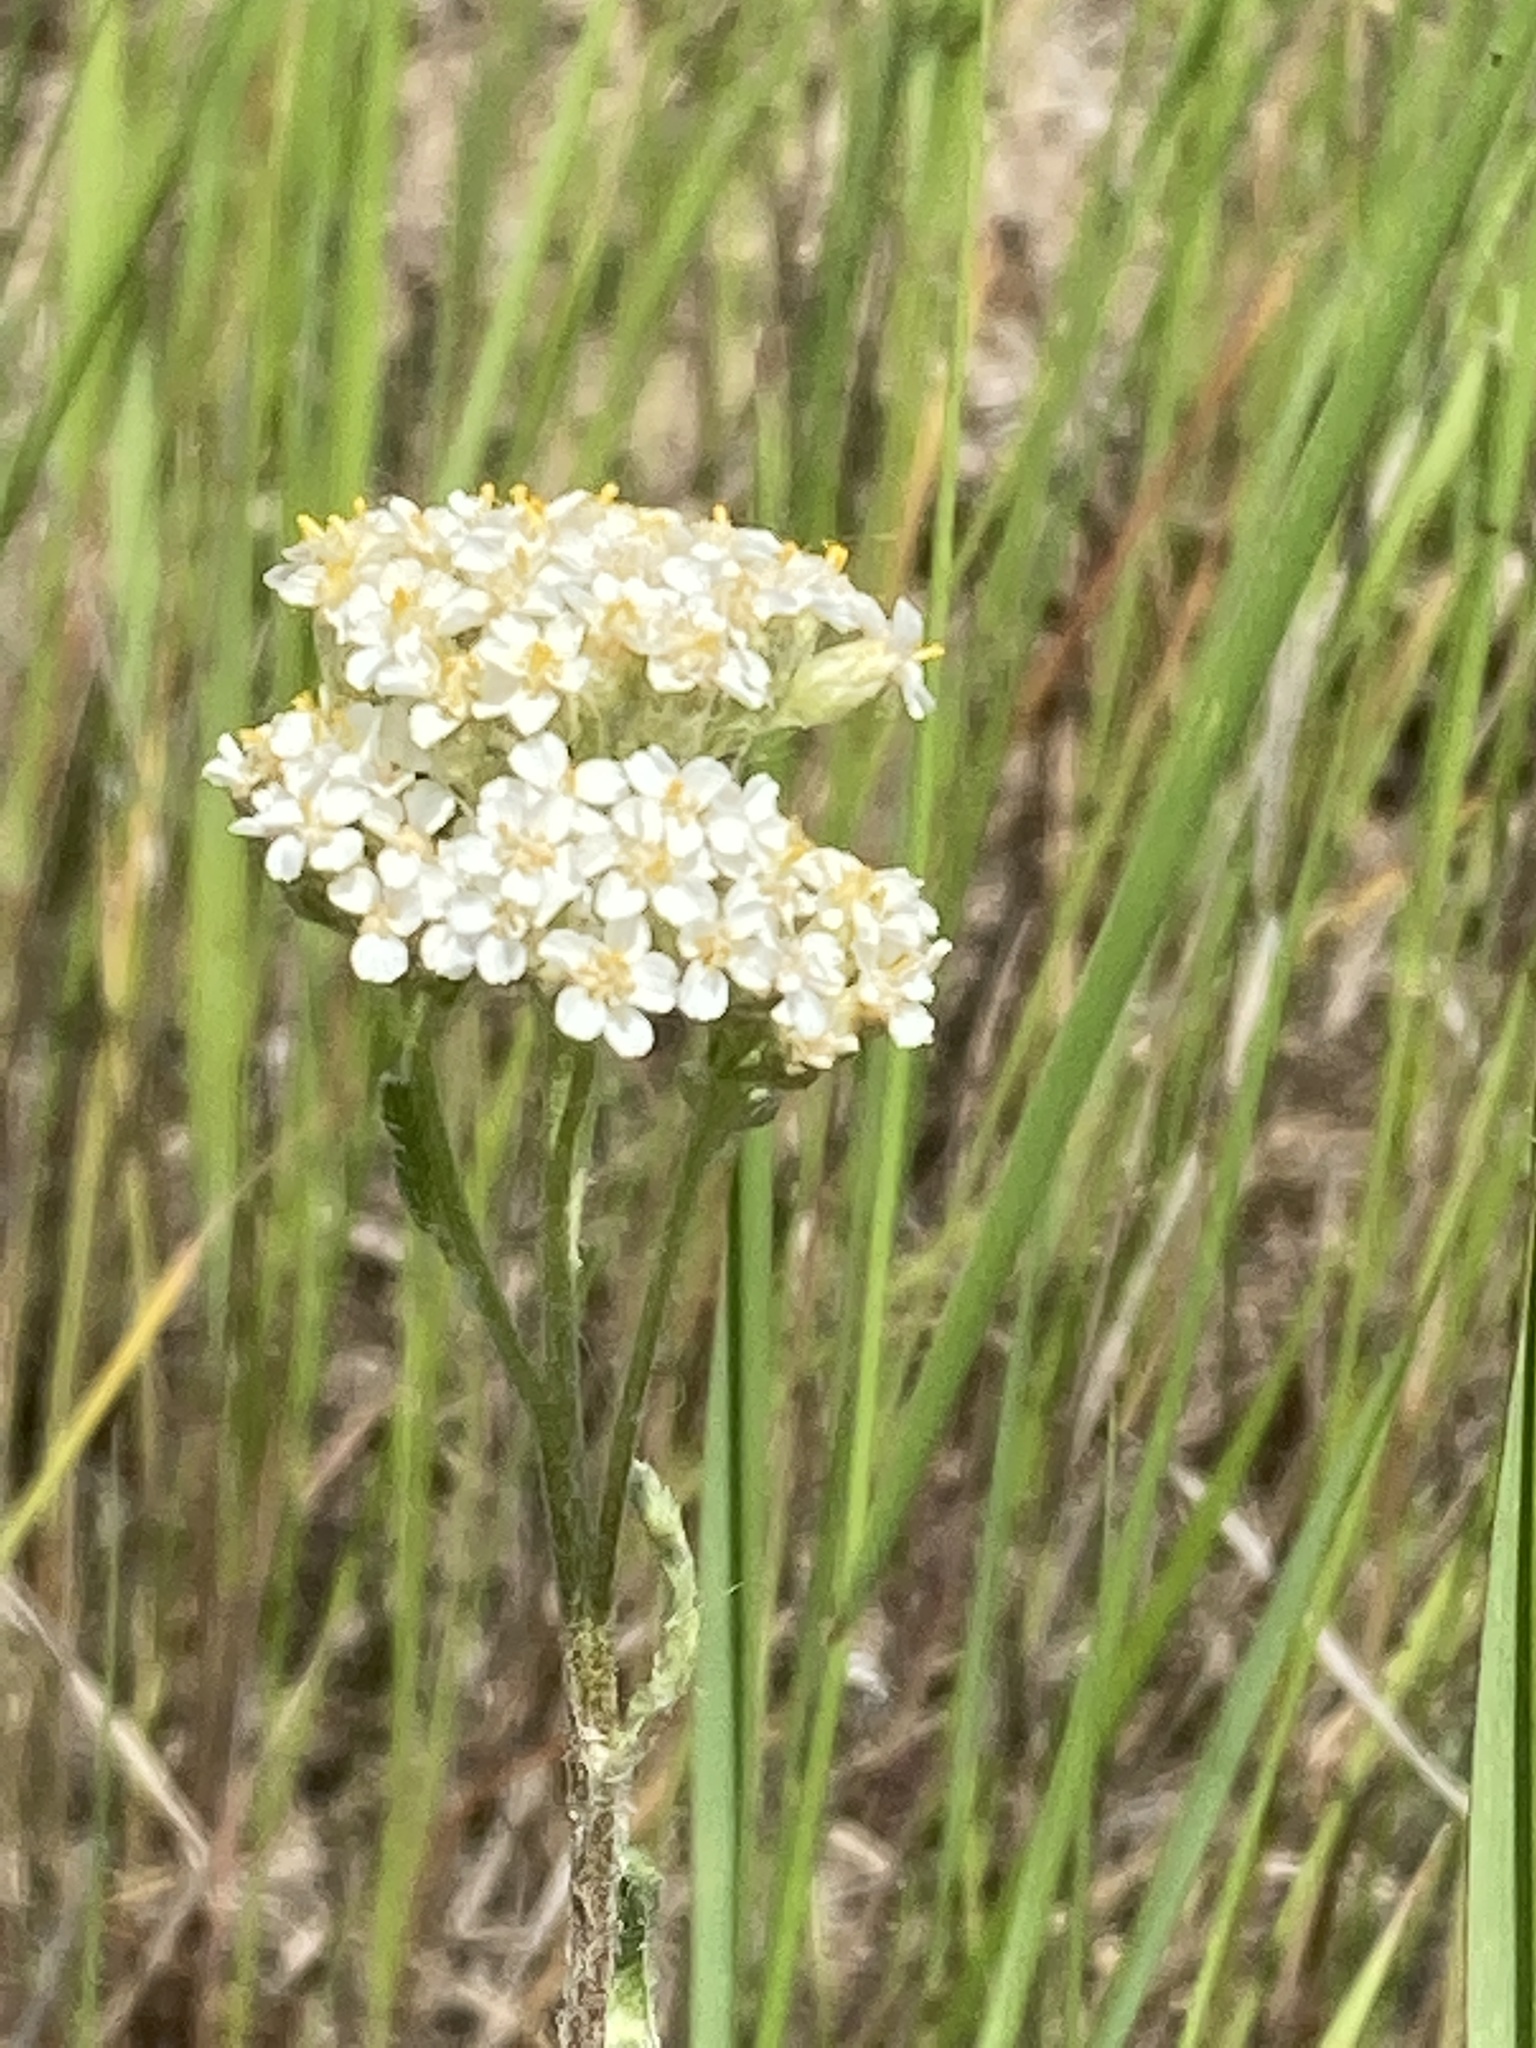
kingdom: Plantae
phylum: Tracheophyta
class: Magnoliopsida
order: Asterales
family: Asteraceae
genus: Achillea
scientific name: Achillea millefolium
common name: Yarrow
